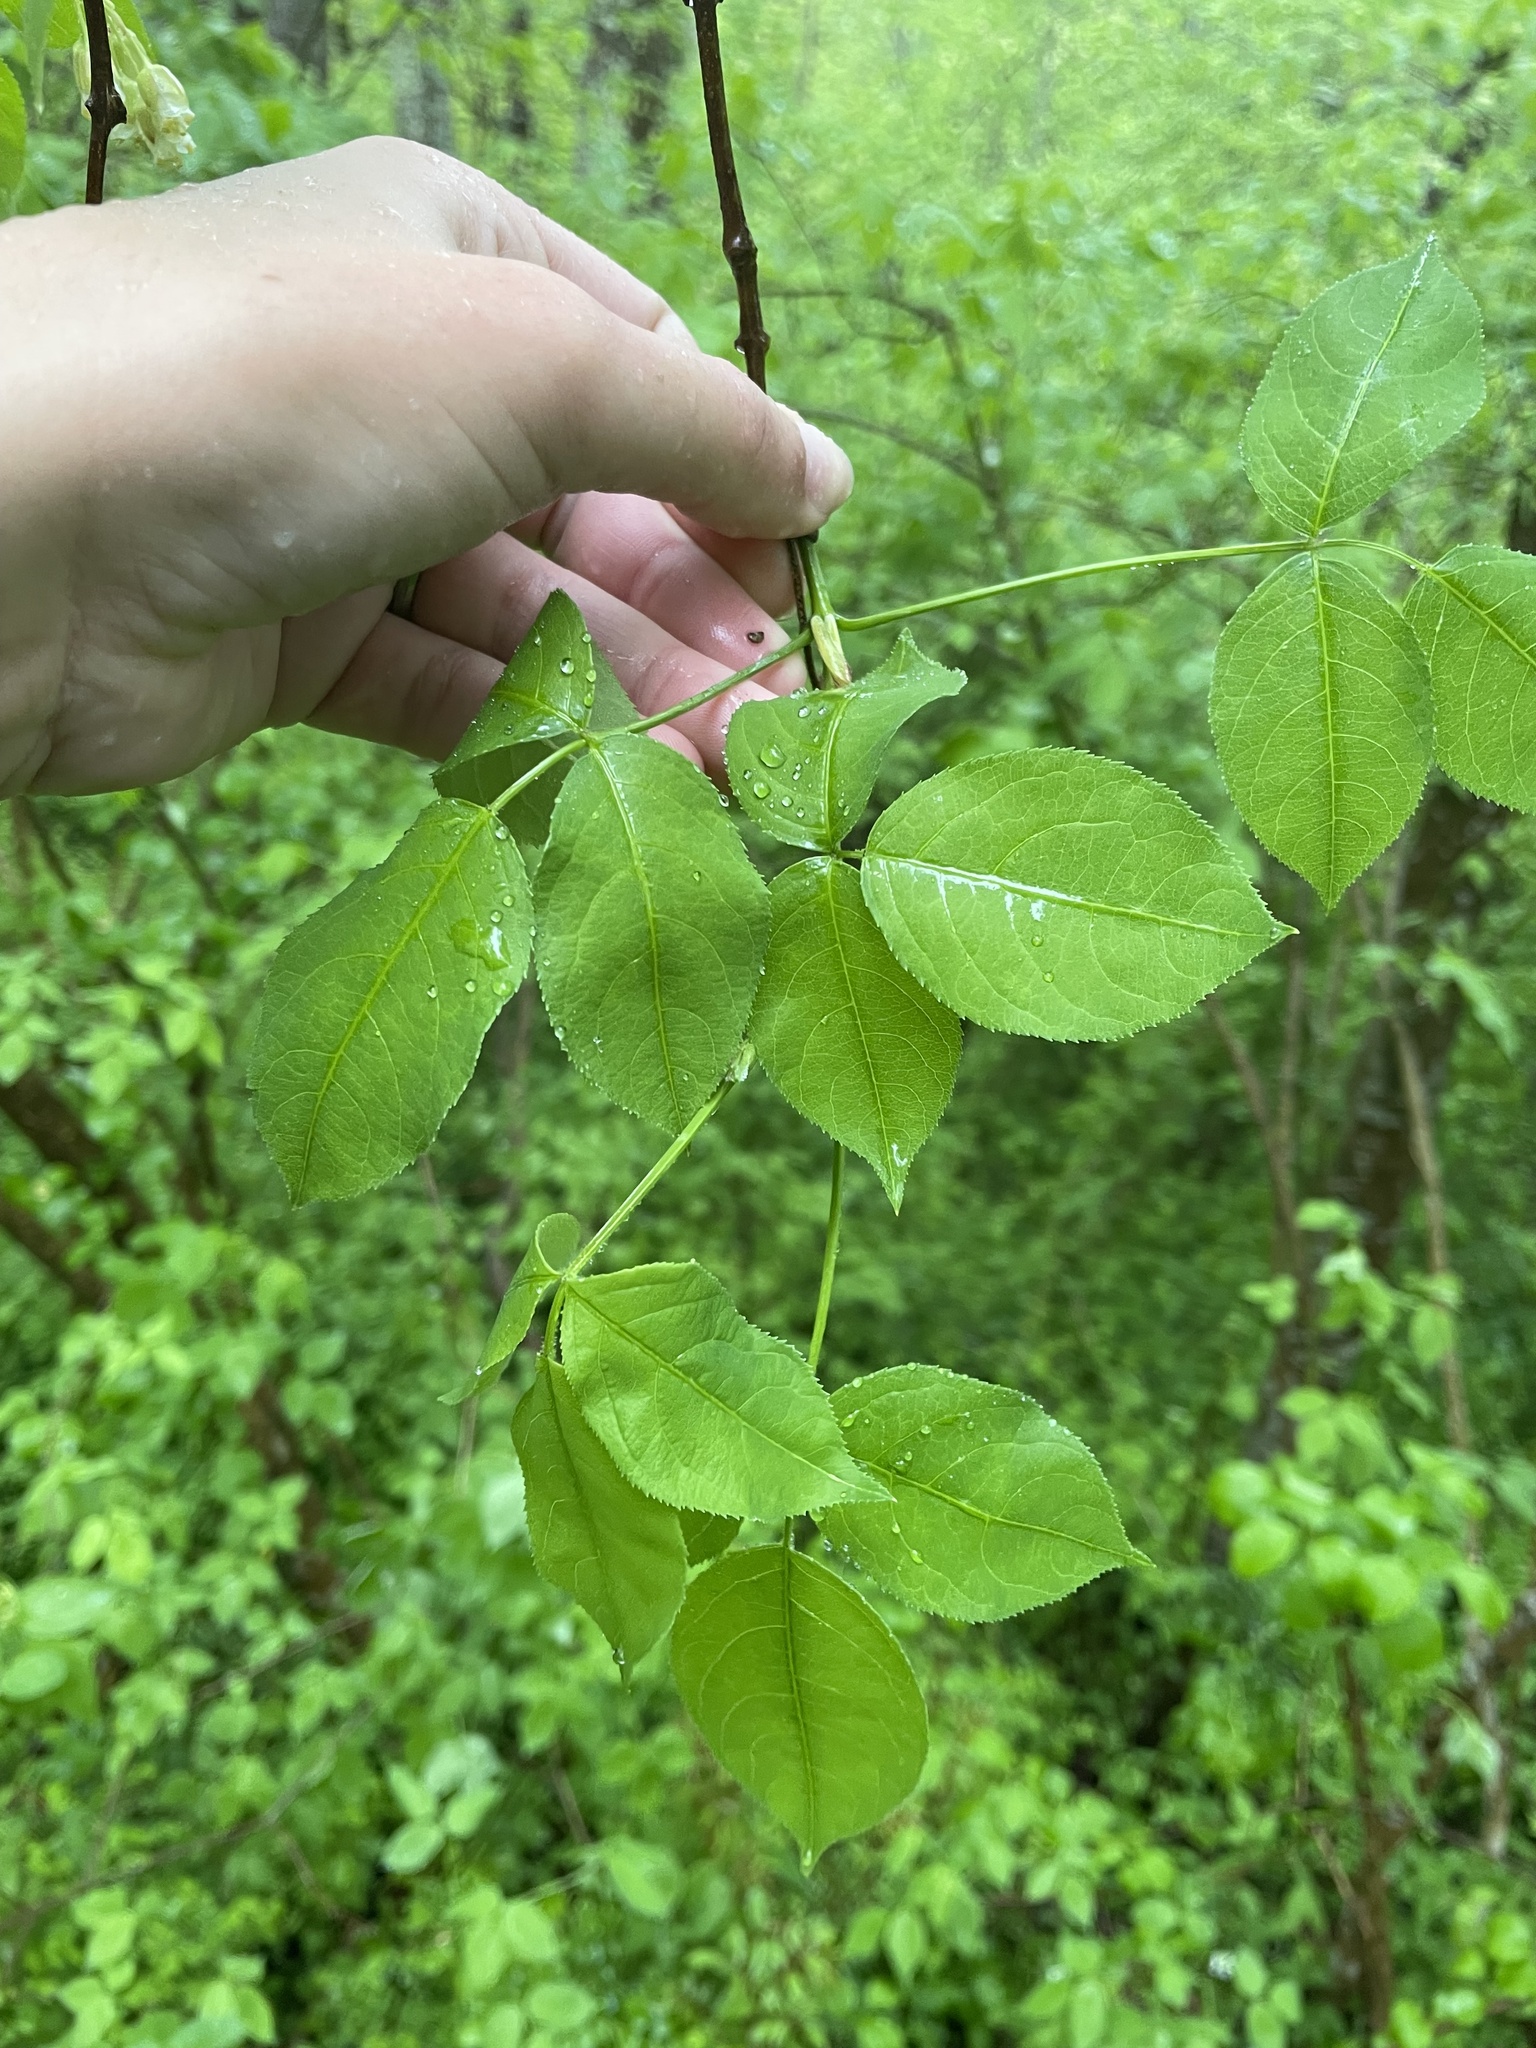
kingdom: Plantae
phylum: Tracheophyta
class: Magnoliopsida
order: Crossosomatales
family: Staphyleaceae
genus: Staphylea
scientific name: Staphylea trifolia
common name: American bladdernut
